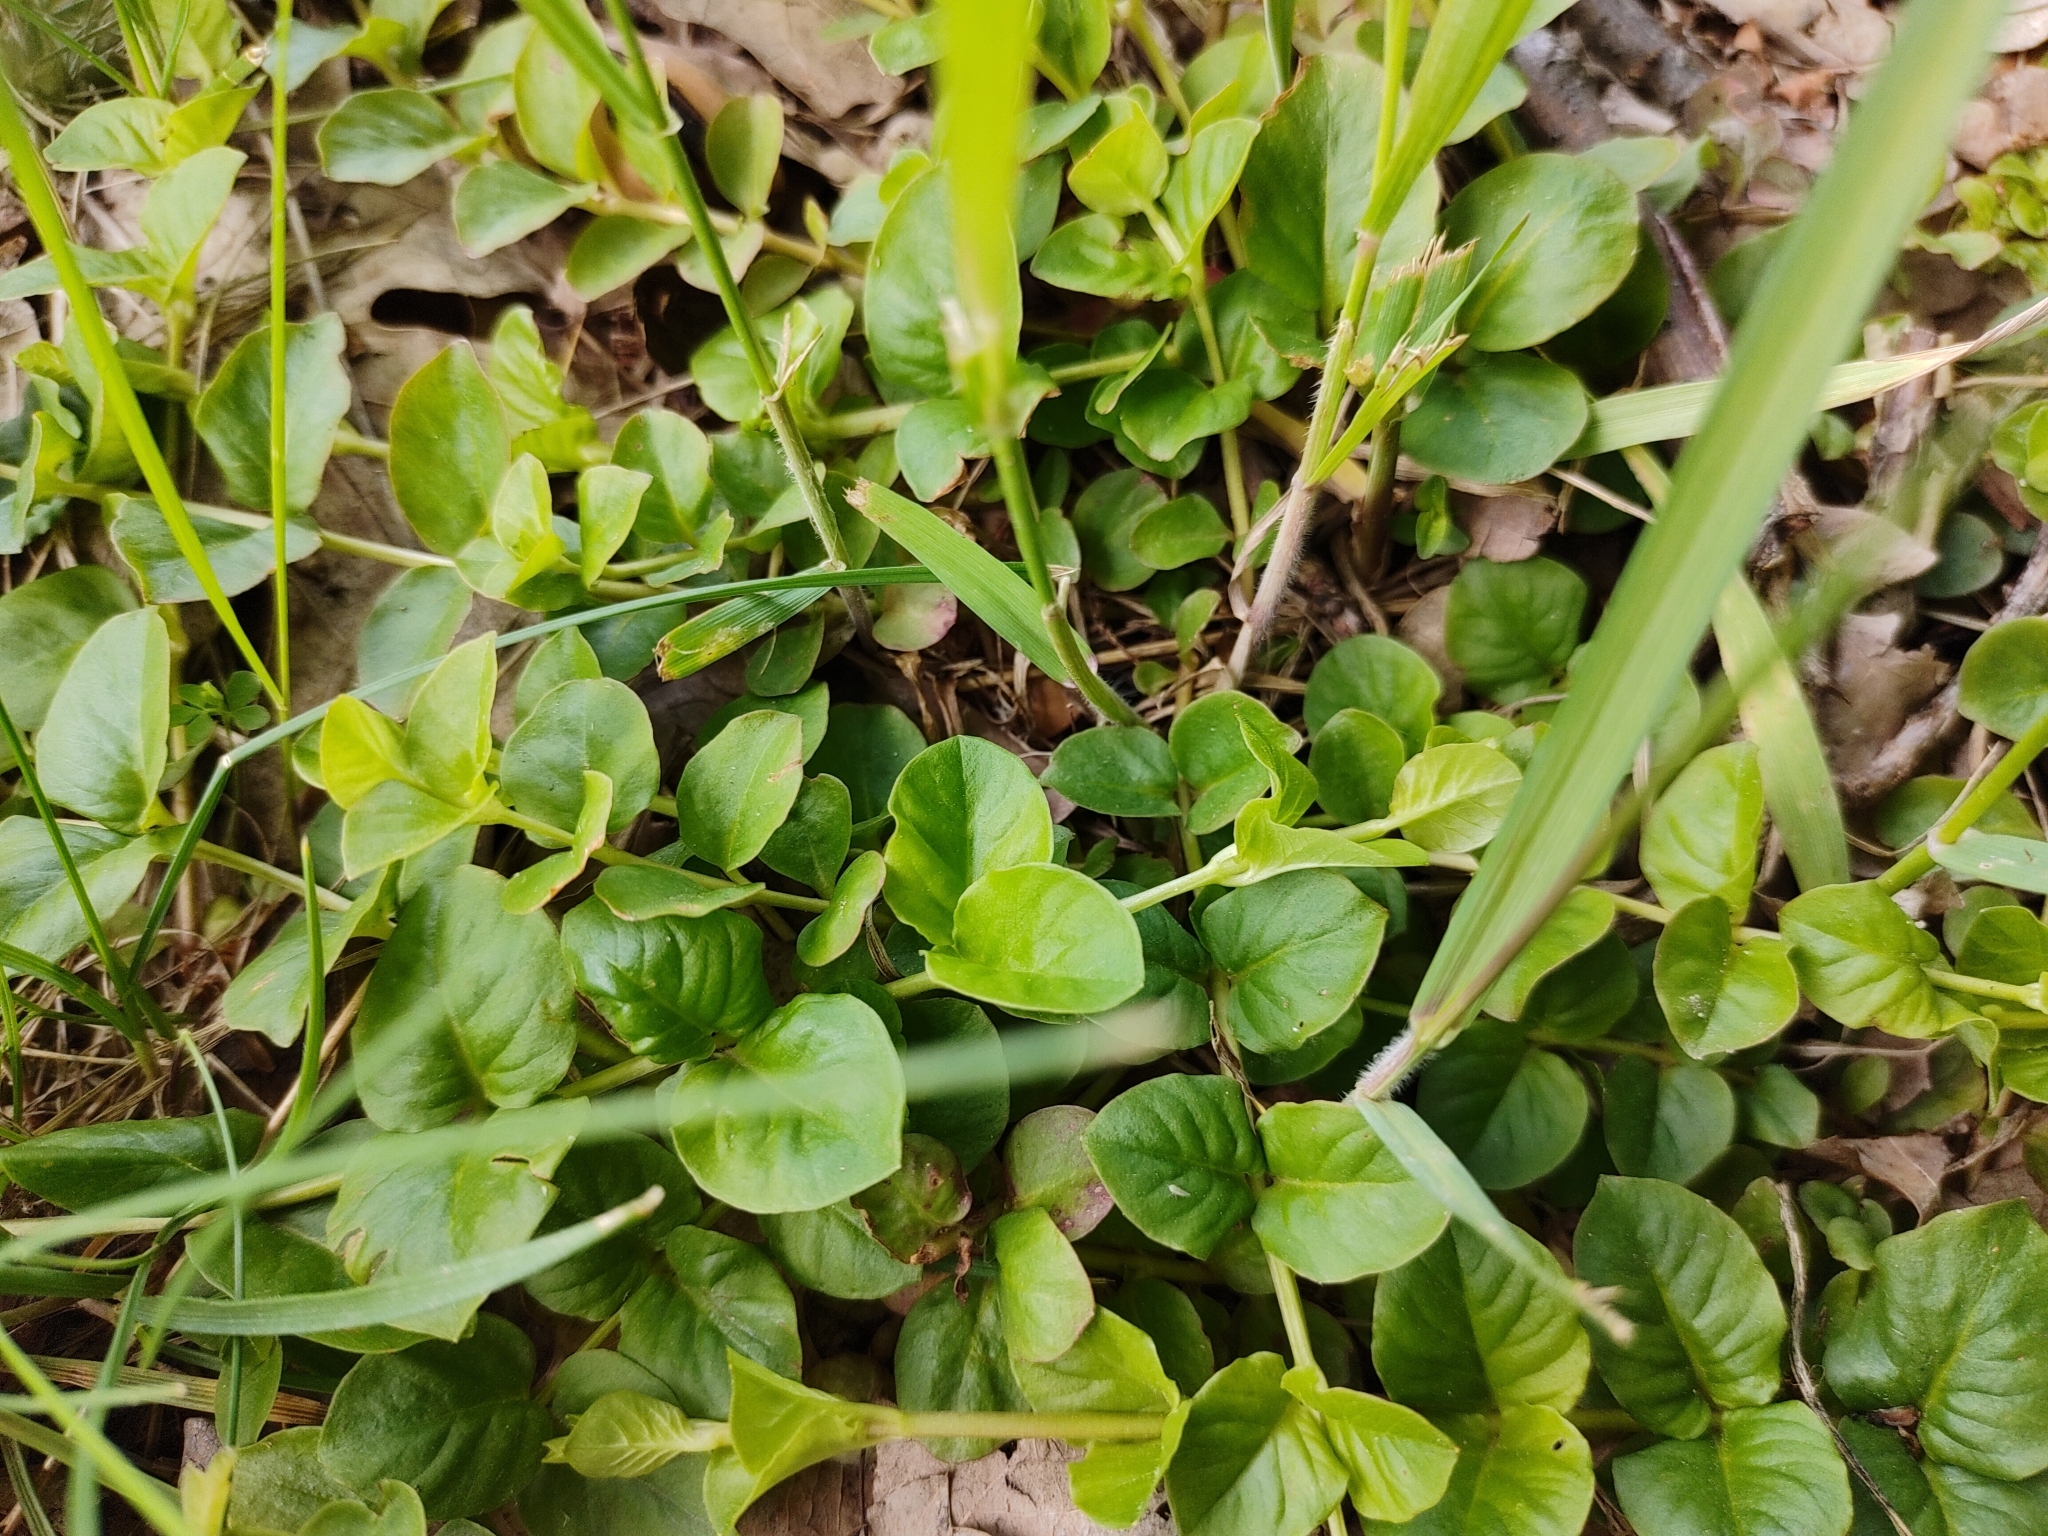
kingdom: Plantae
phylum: Tracheophyta
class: Magnoliopsida
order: Ericales
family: Primulaceae
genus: Lysimachia
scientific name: Lysimachia nummularia
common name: Moneywort
